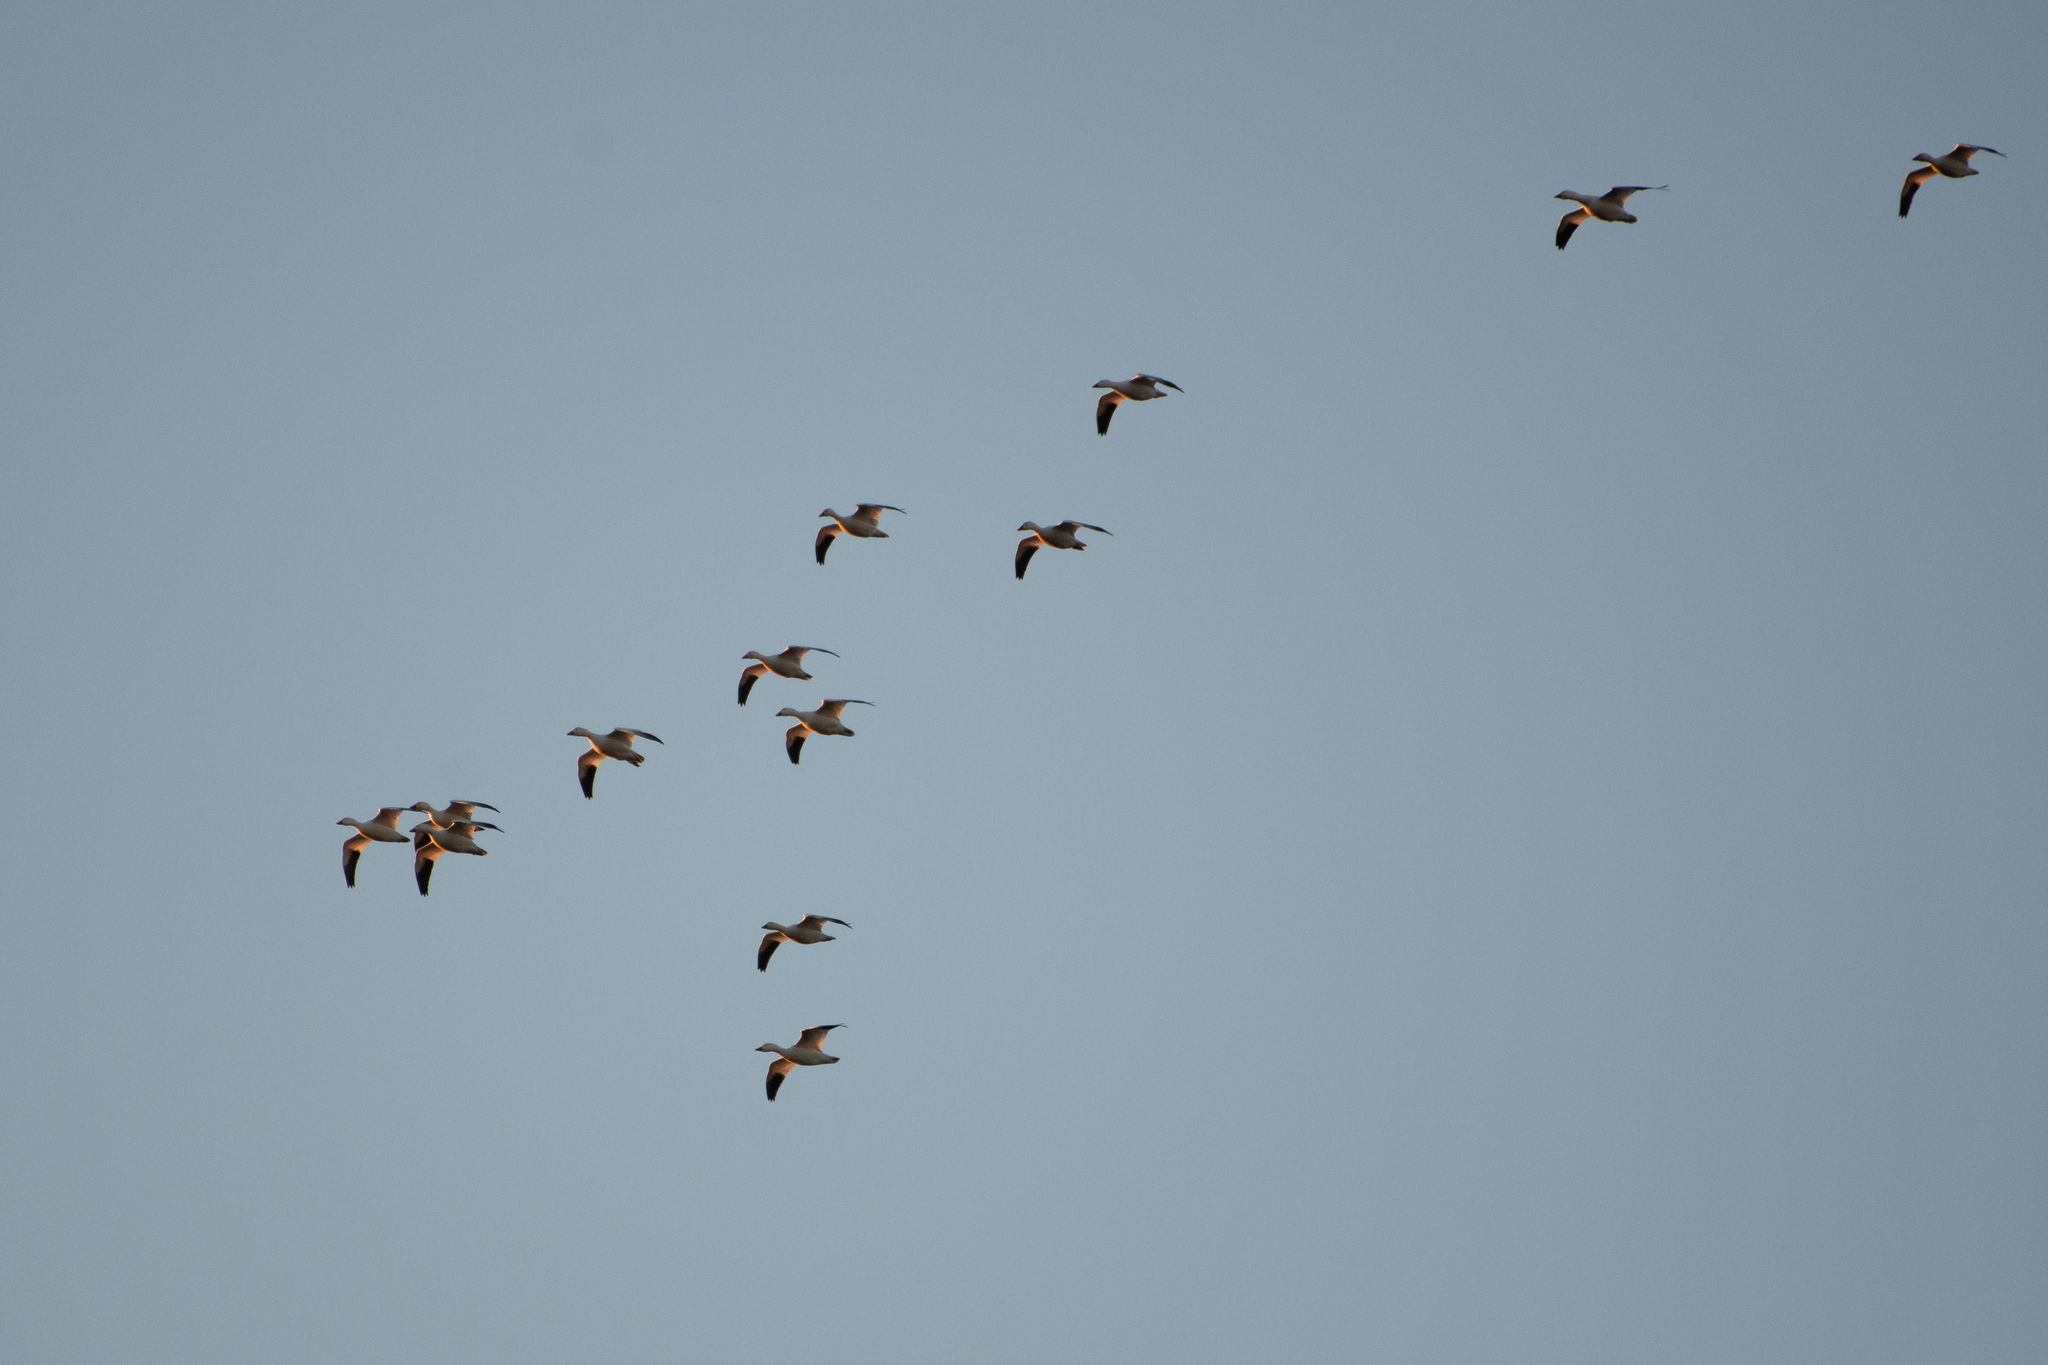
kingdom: Animalia
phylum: Chordata
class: Aves
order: Anseriformes
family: Anatidae
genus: Anser
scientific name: Anser caerulescens
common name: Snow goose
